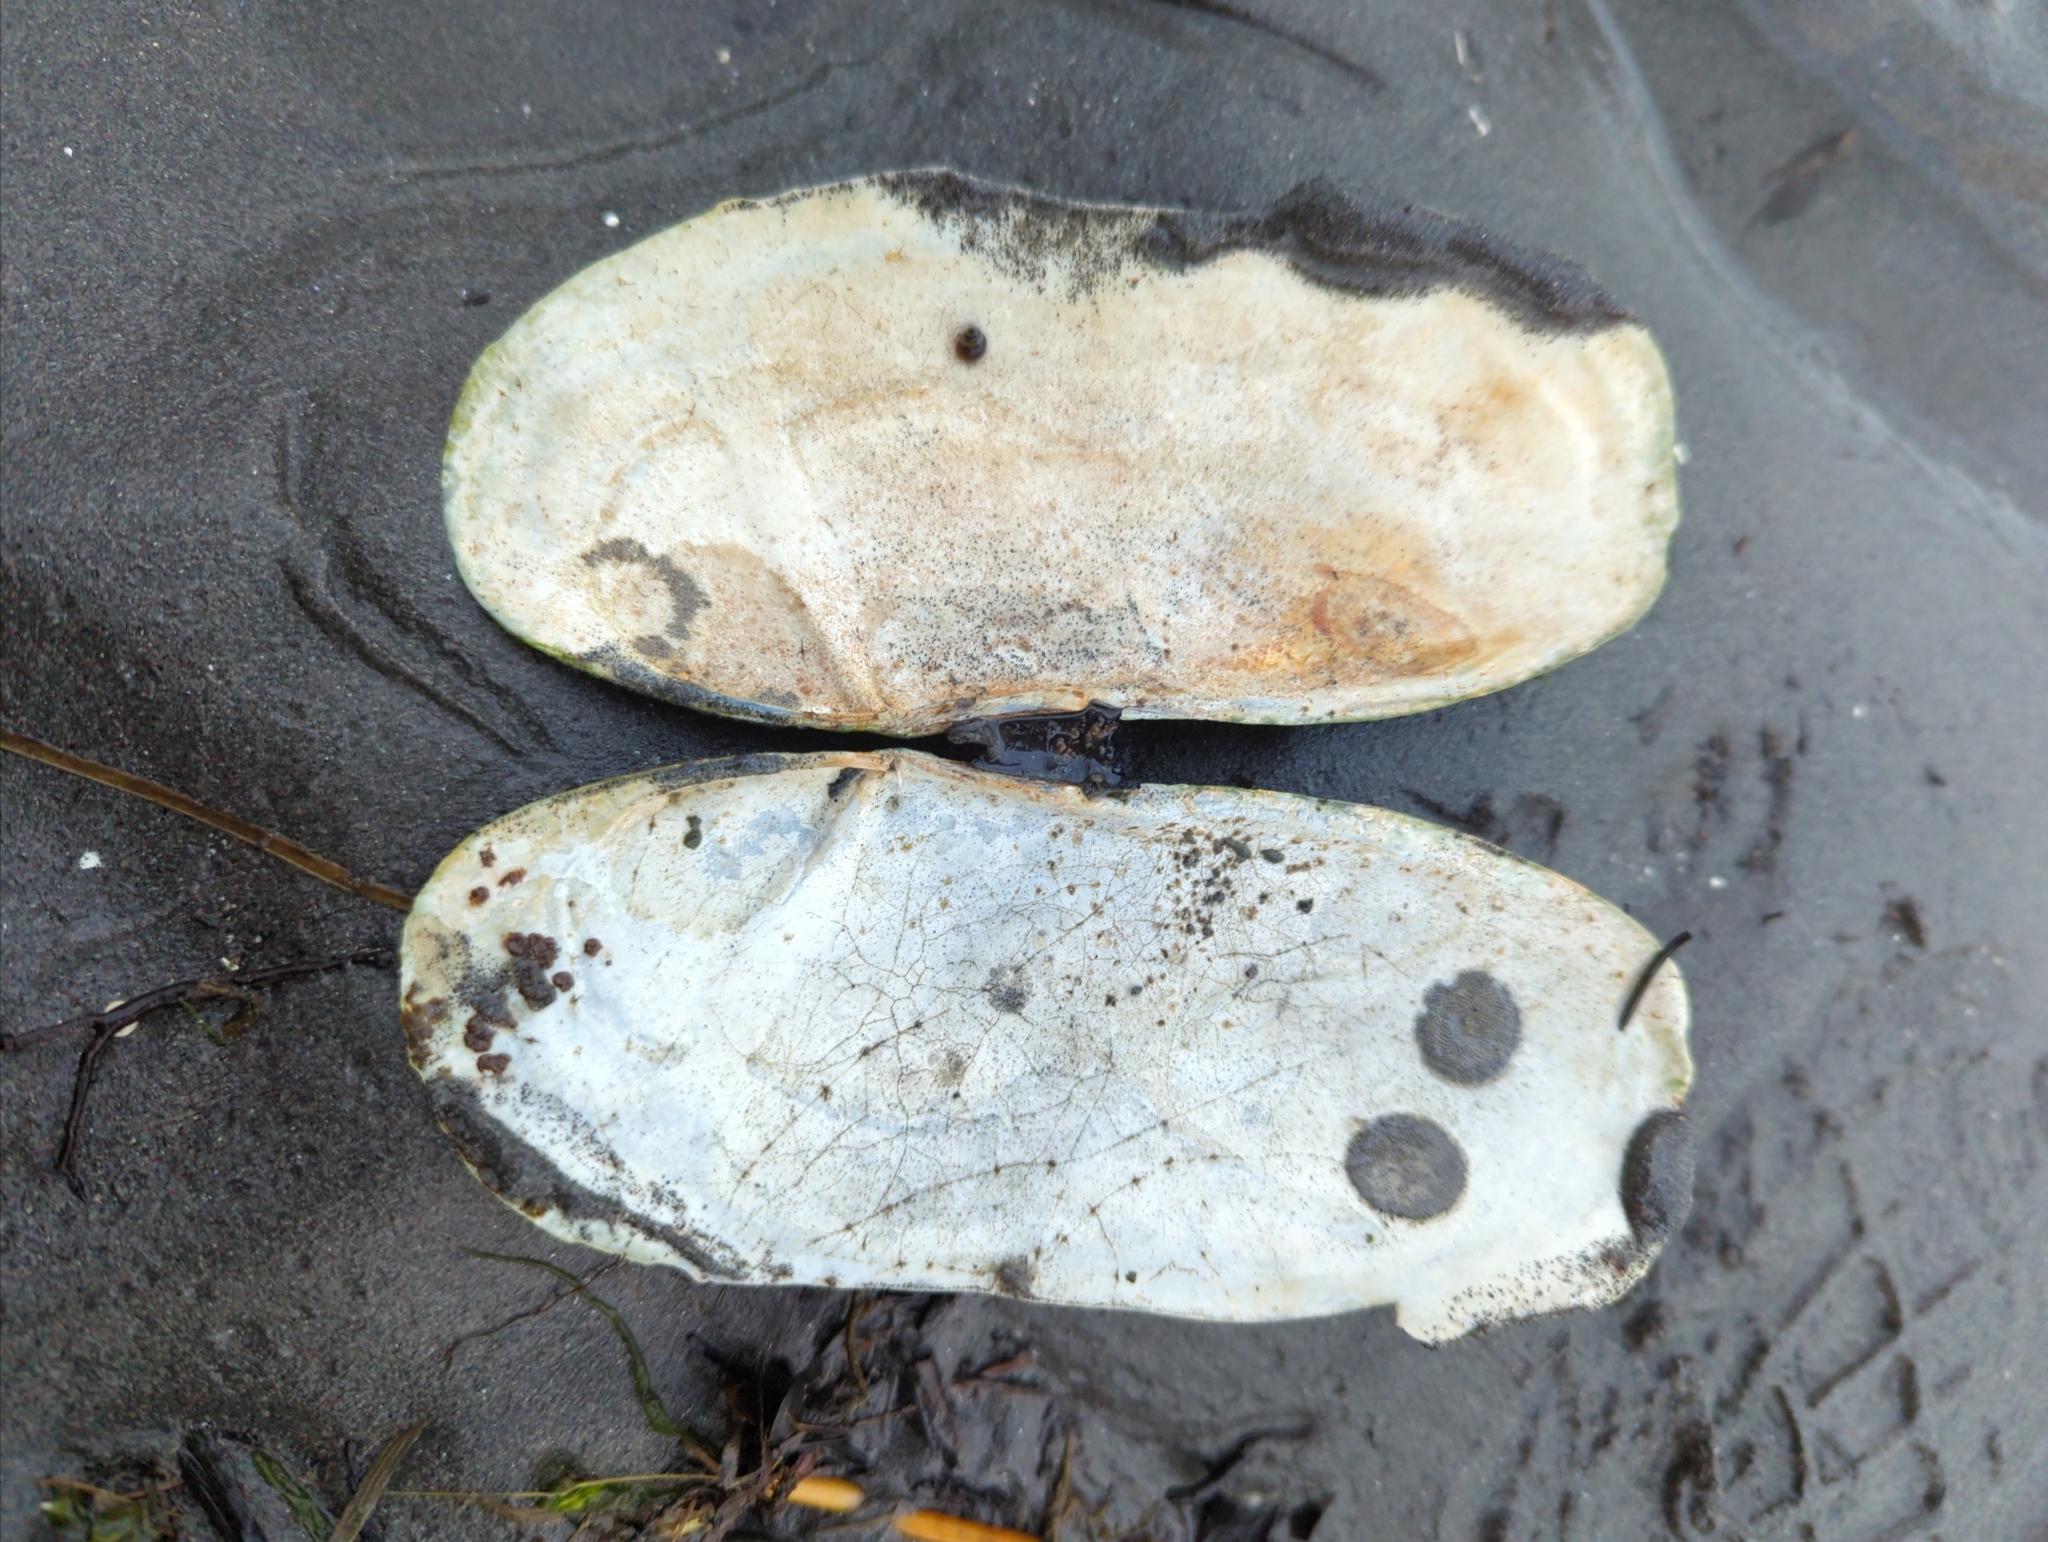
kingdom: Animalia
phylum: Mollusca
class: Bivalvia
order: Adapedonta
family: Pharidae
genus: Siliqua
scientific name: Siliqua patula
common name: Pacific razor clam
